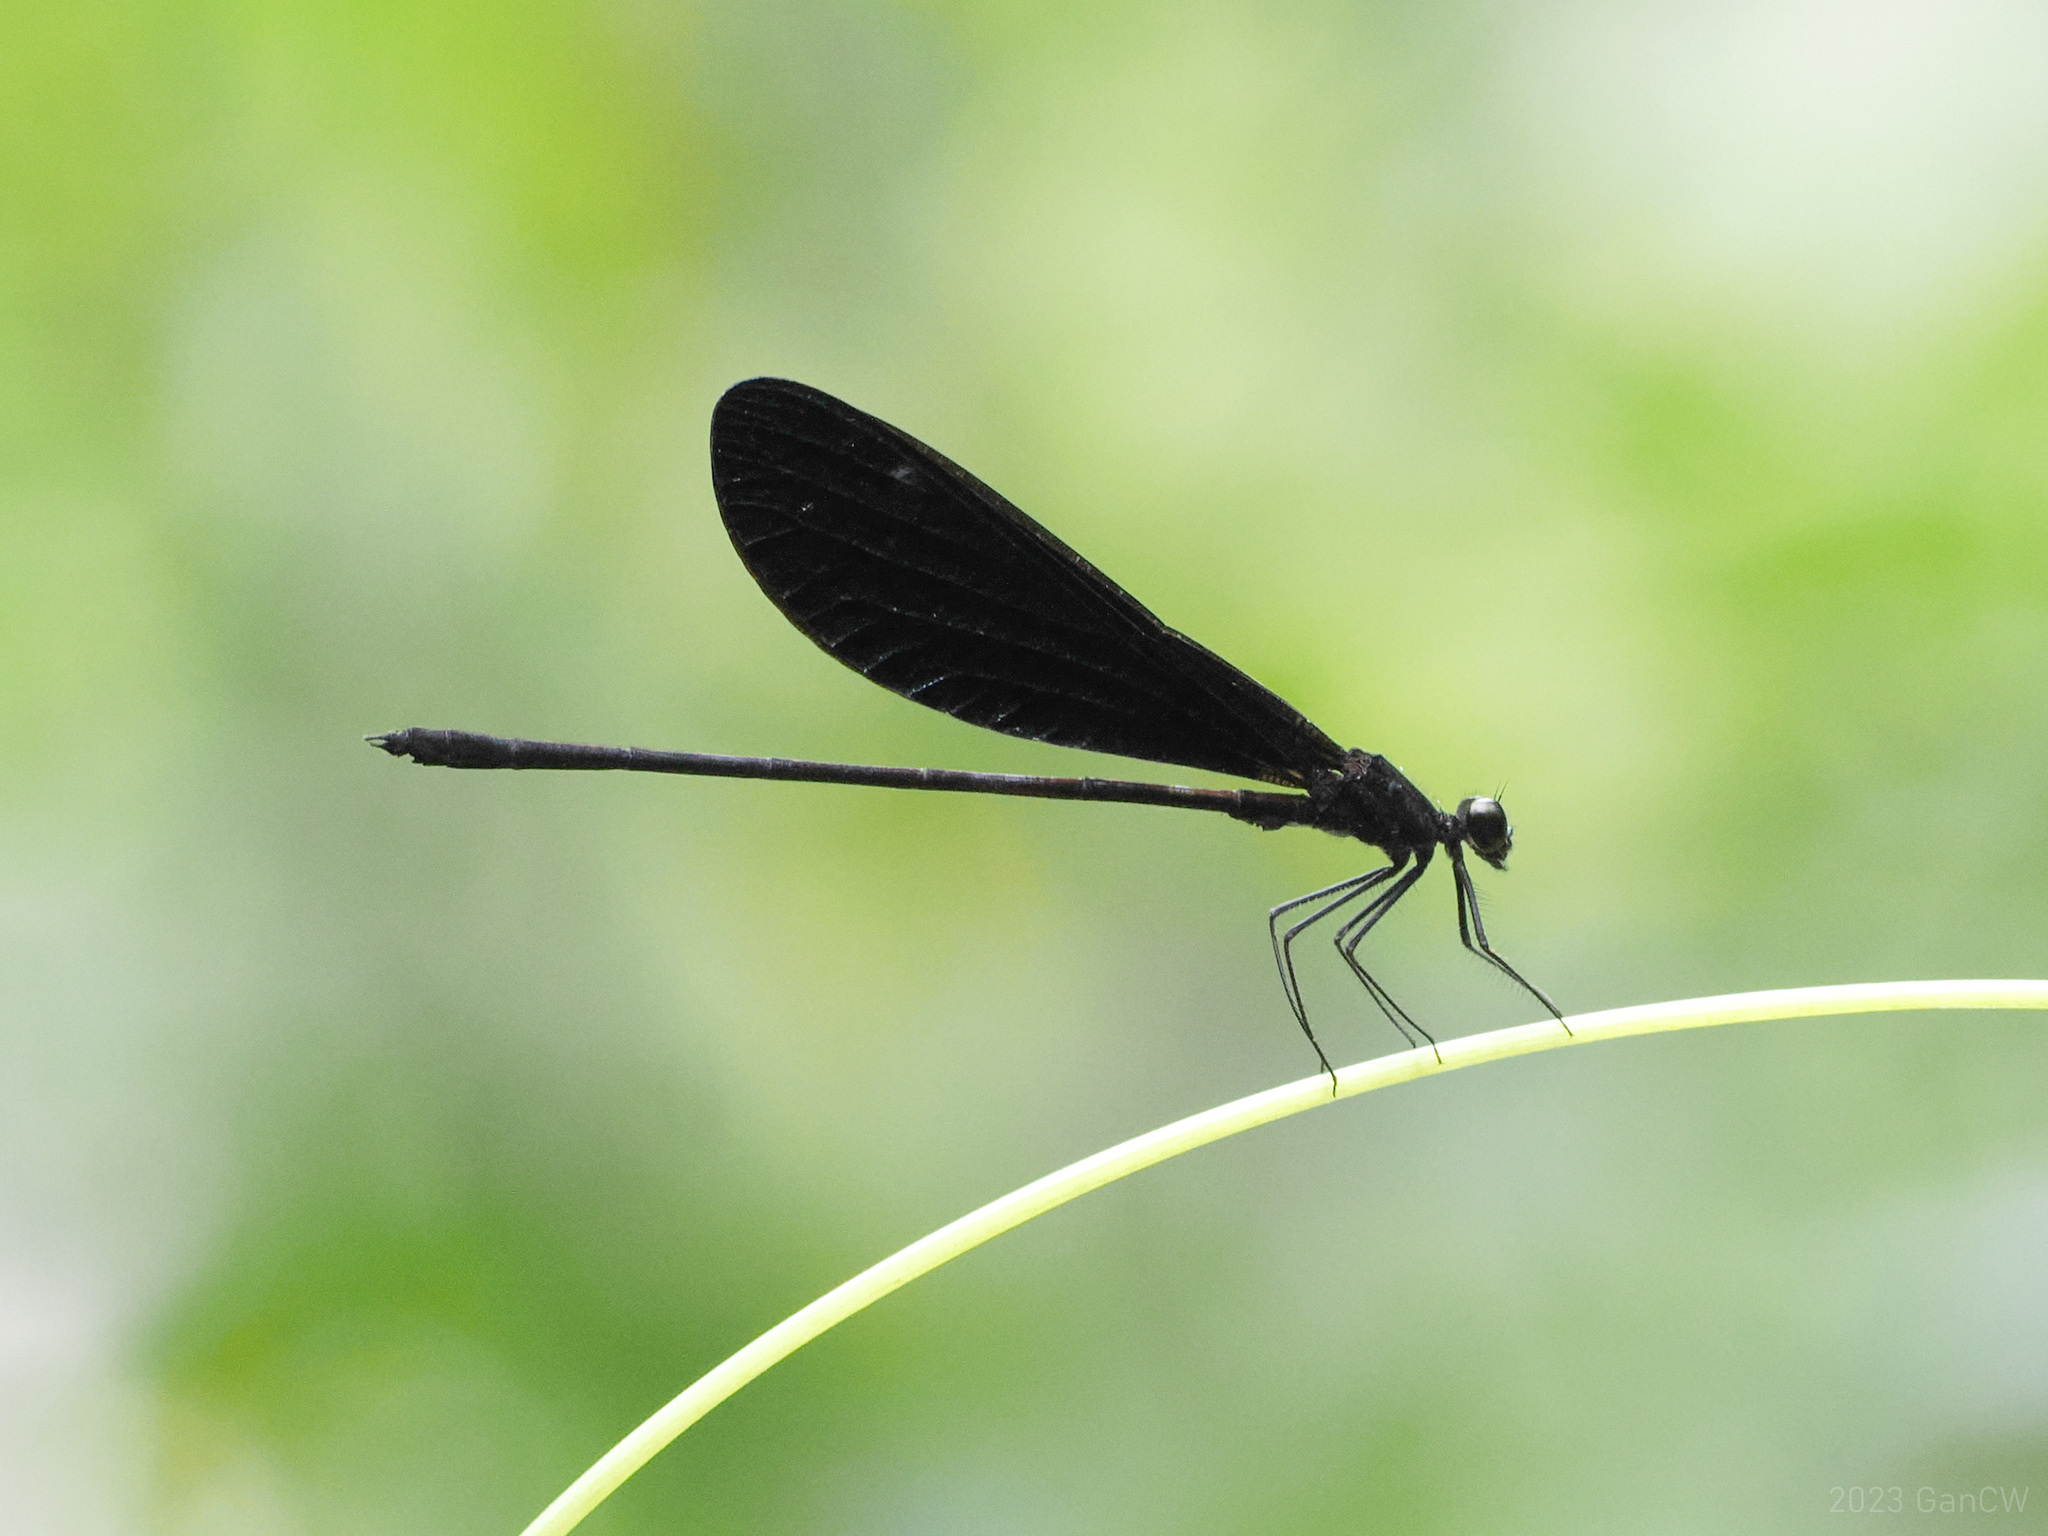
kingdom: Animalia
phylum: Arthropoda
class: Insecta
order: Odonata
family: Calopterygidae
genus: Vestalis
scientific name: Vestalis lugens
